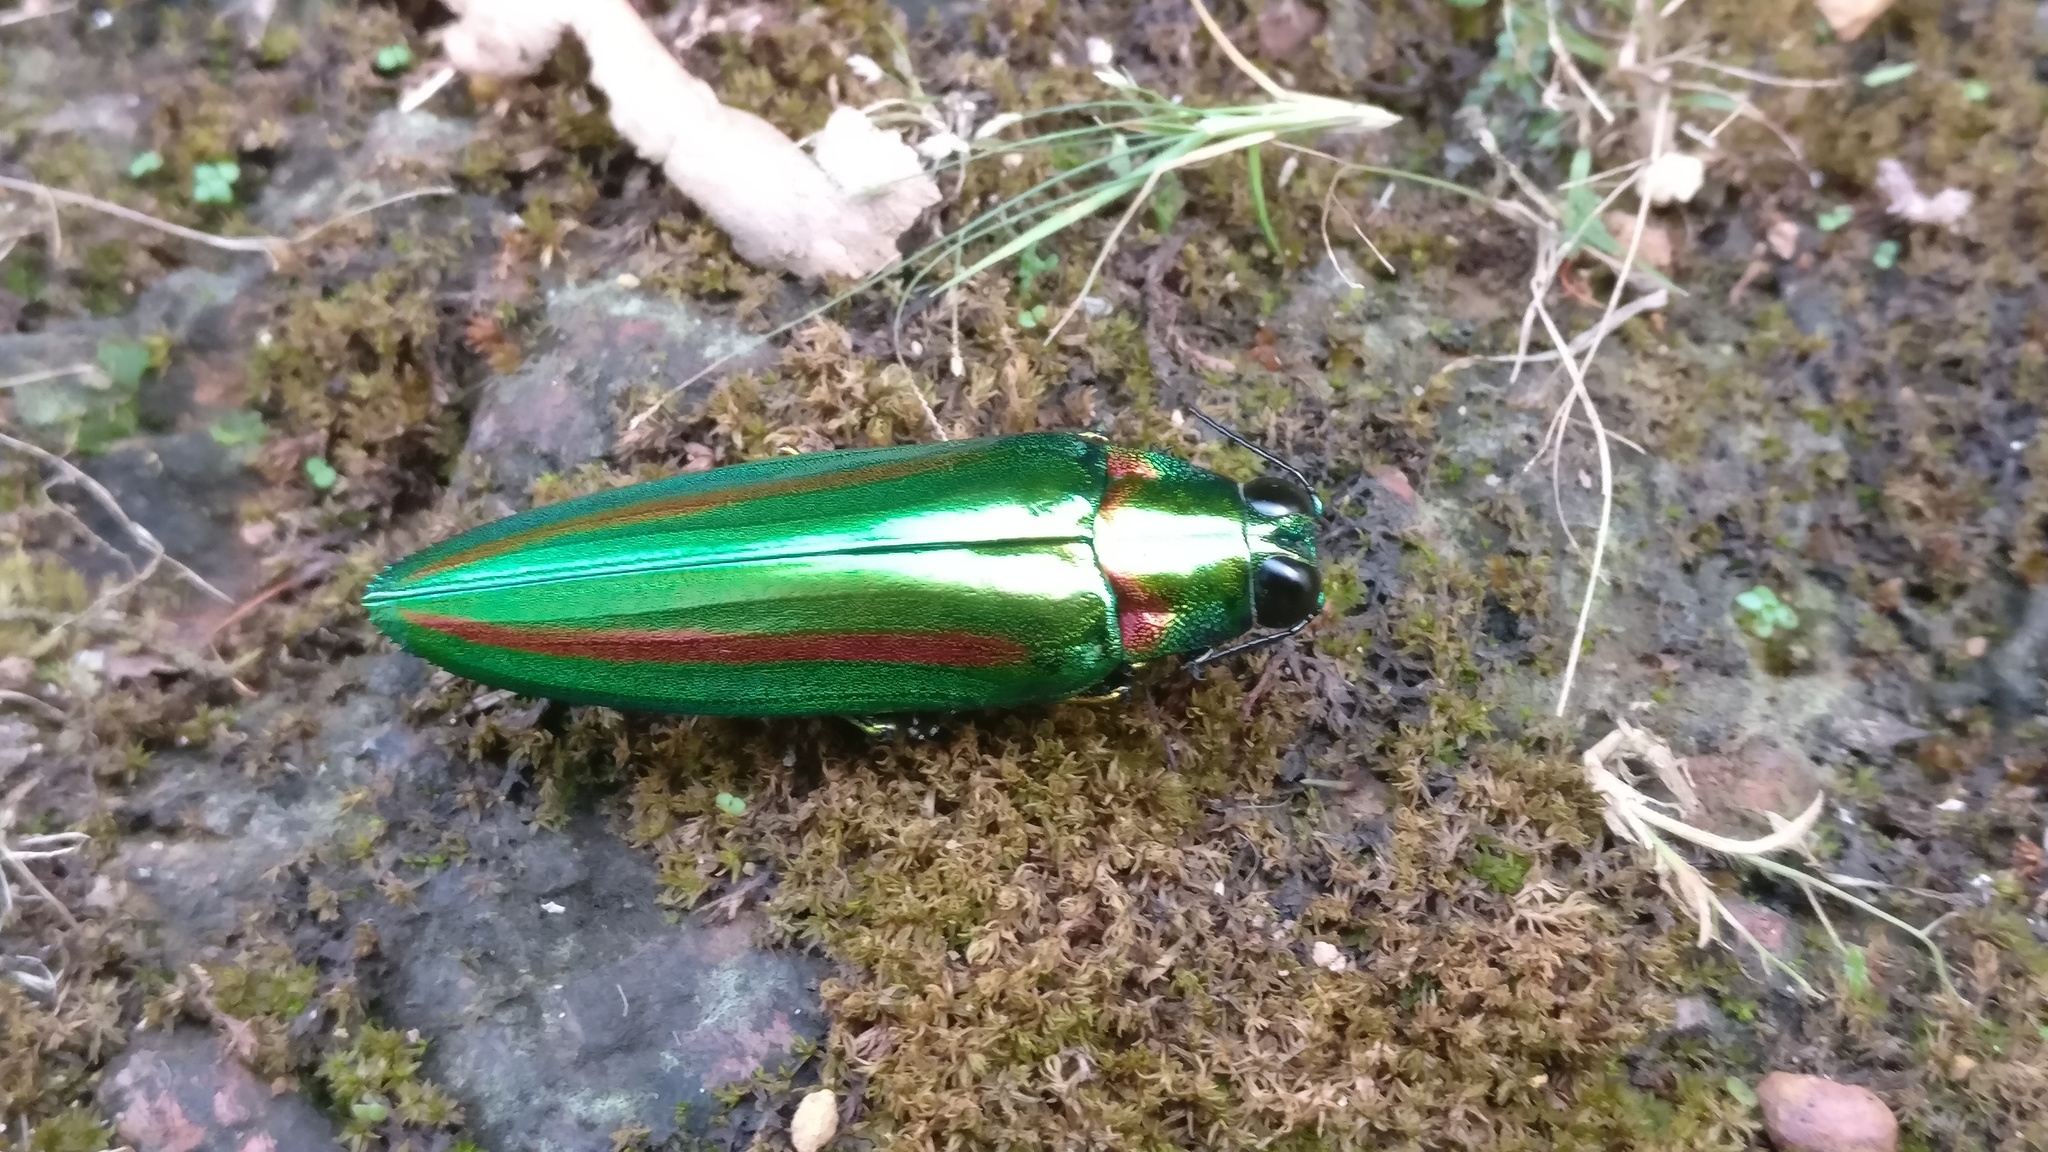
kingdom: Animalia
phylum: Arthropoda
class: Insecta
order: Coleoptera
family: Buprestidae
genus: Chrysochroa
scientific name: Chrysochroa rajah
